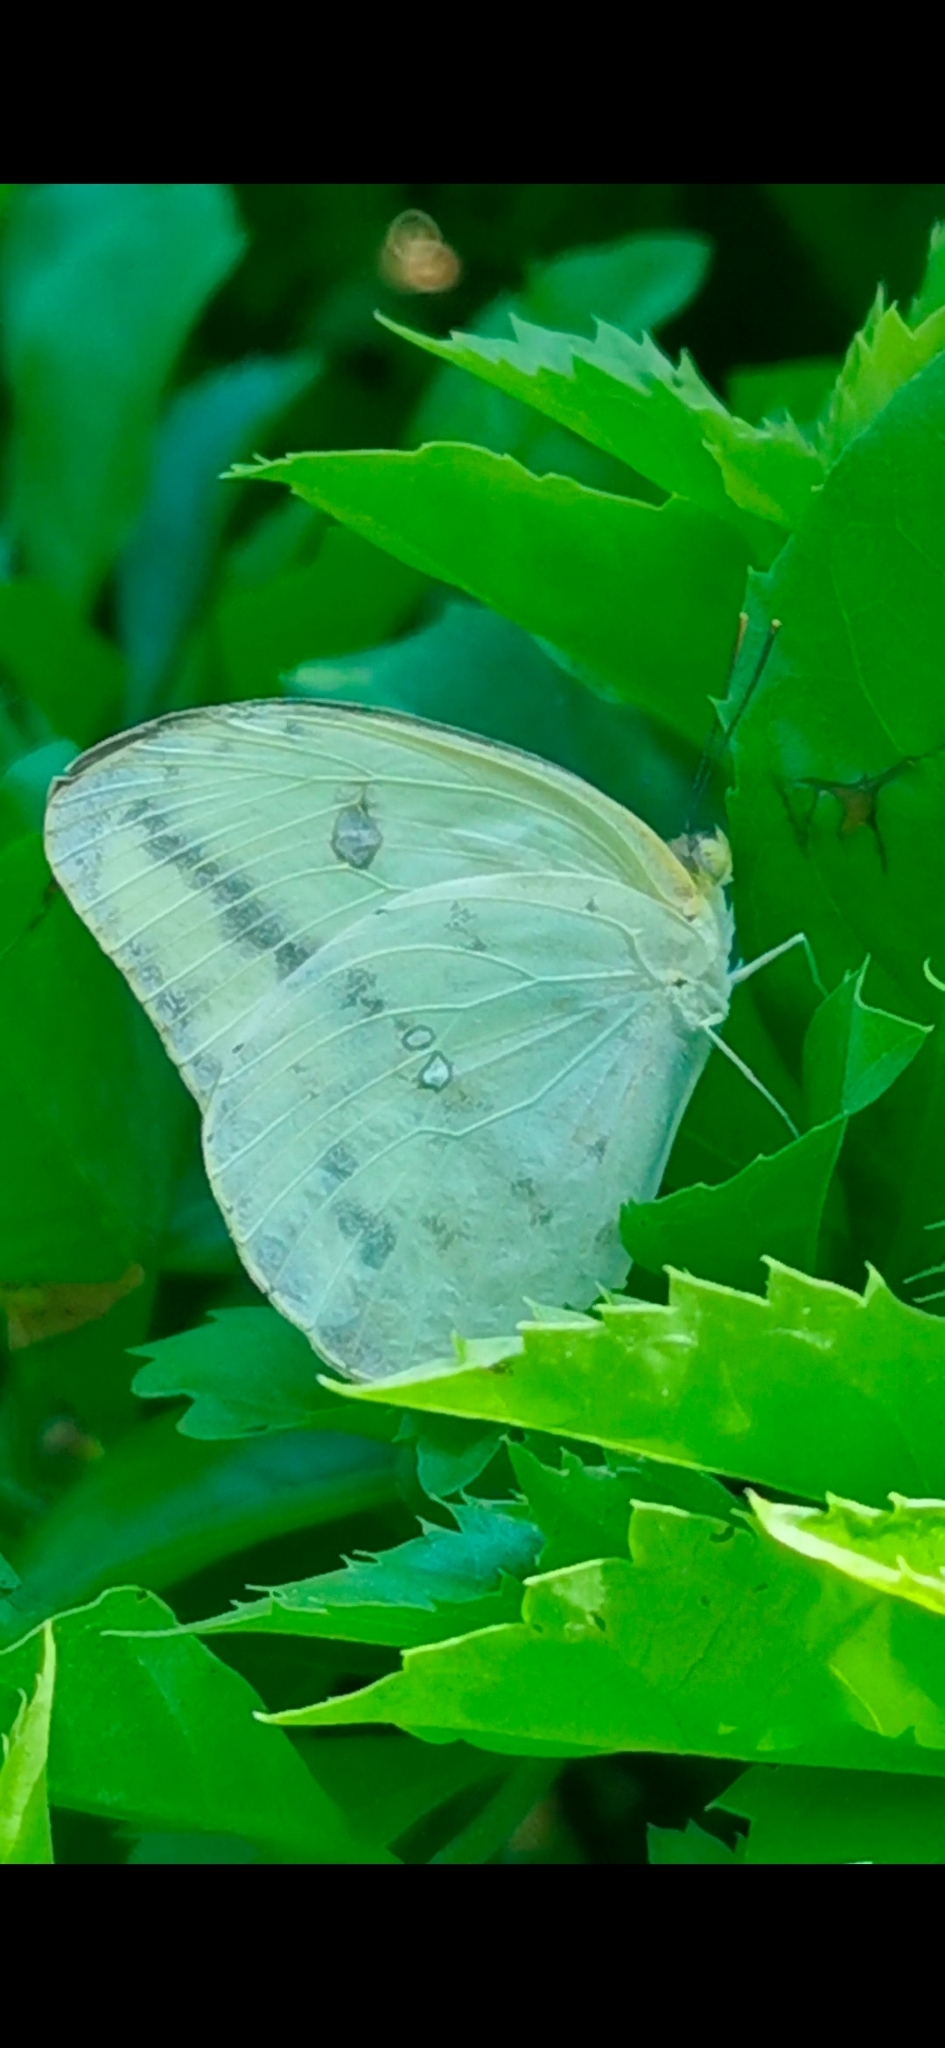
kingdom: Animalia
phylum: Arthropoda
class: Insecta
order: Lepidoptera
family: Pieridae
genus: Phoebis
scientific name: Phoebis agarithe
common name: Large orange sulphur
